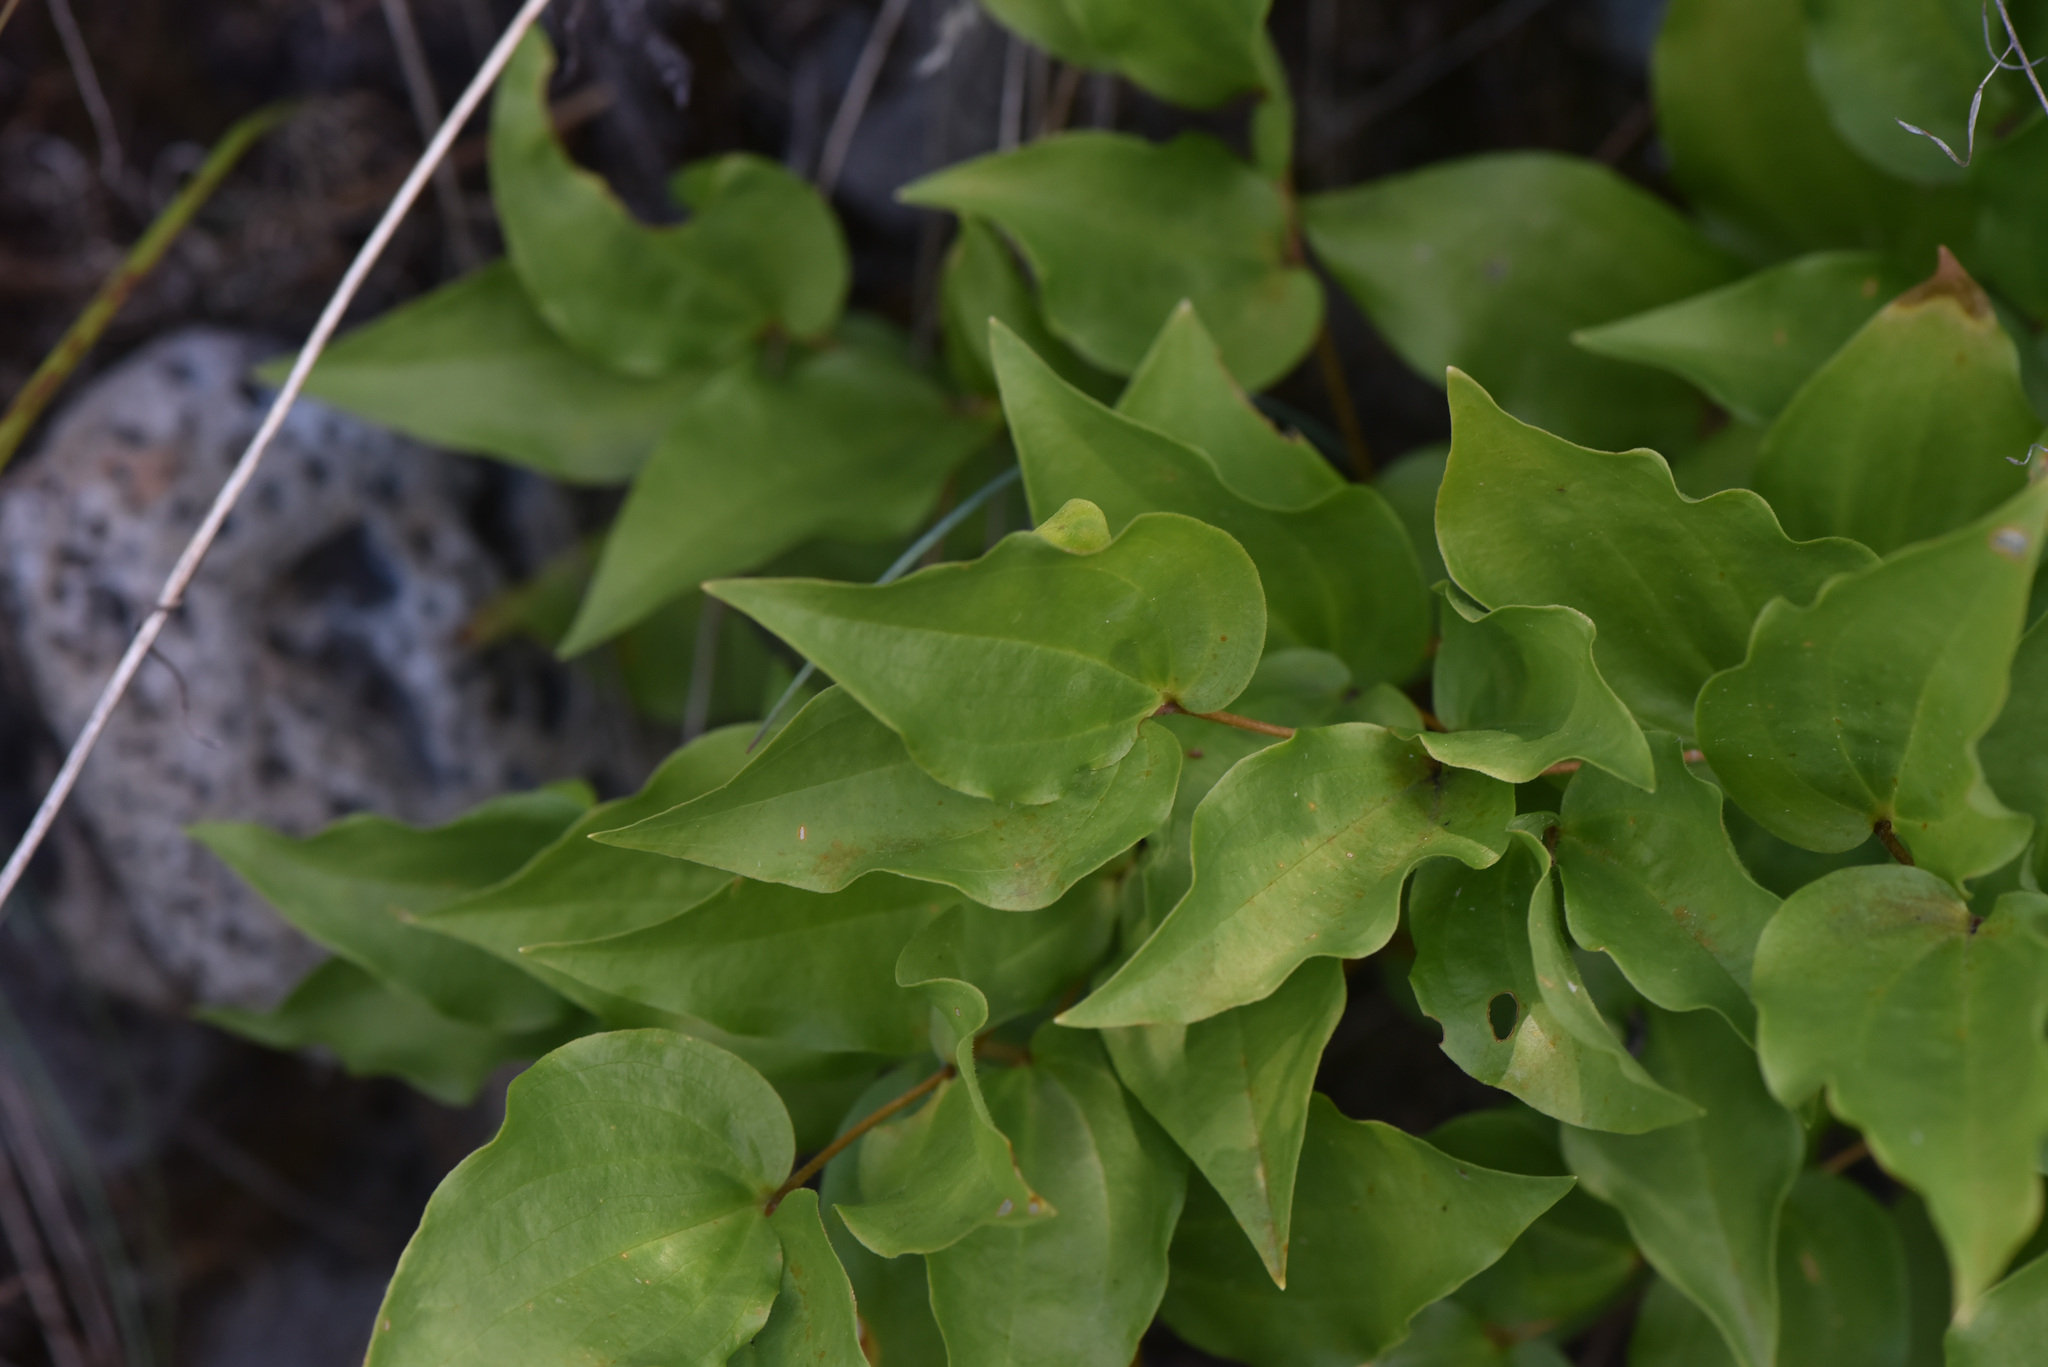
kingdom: Plantae
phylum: Tracheophyta
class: Liliopsida
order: Liliales
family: Liliaceae
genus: Prosartes
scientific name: Prosartes trachycarpa
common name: Rough-fruit fairy-bells
